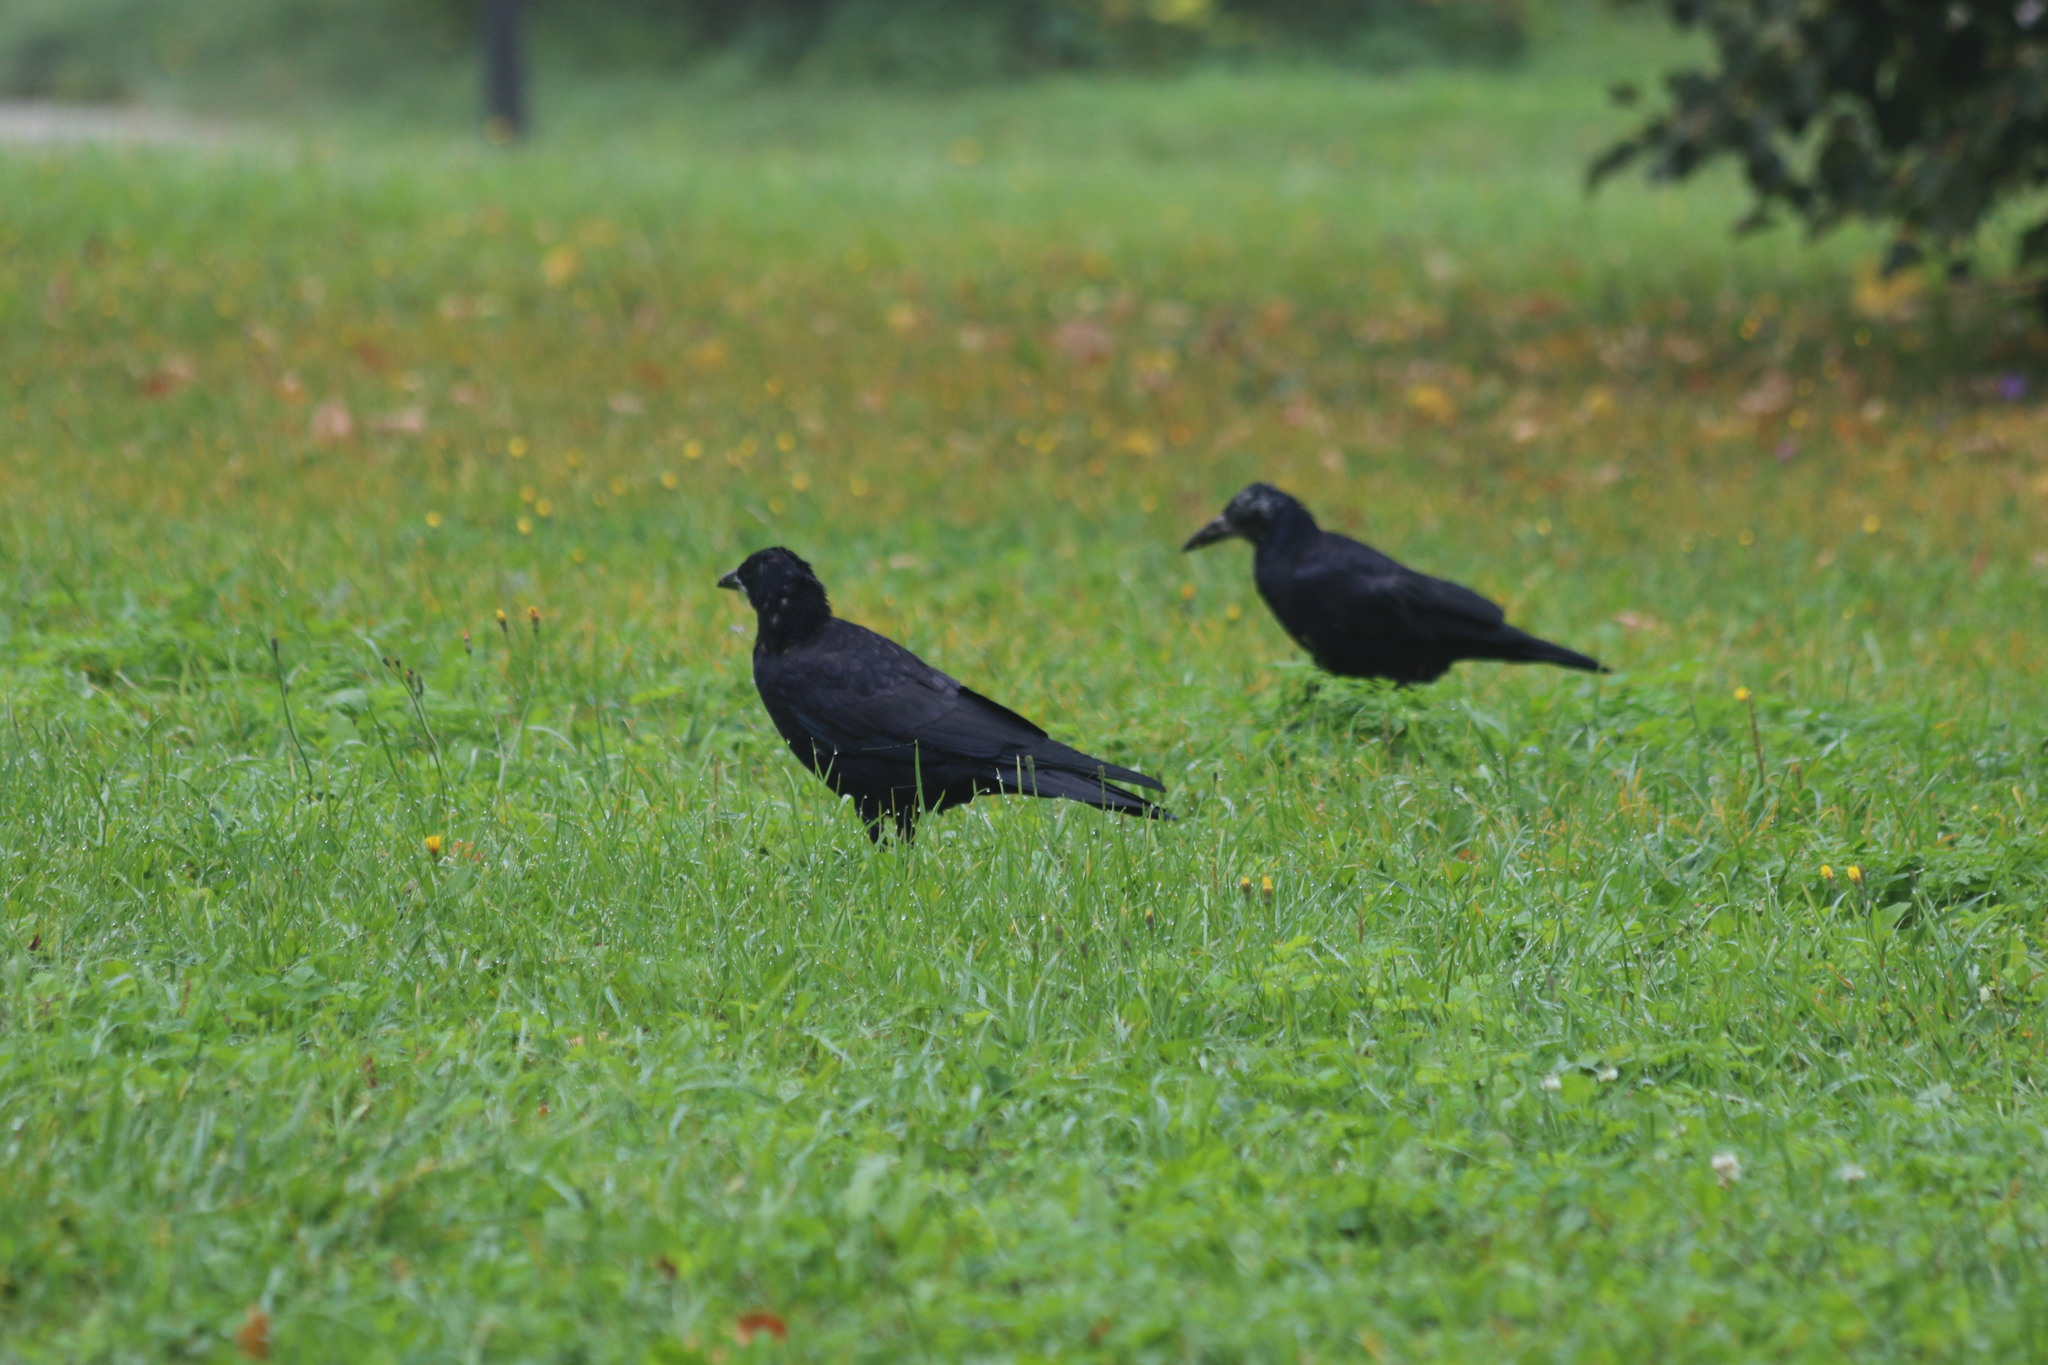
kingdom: Animalia
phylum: Chordata
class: Aves
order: Passeriformes
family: Corvidae
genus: Corvus
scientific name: Corvus frugilegus
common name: Rook
